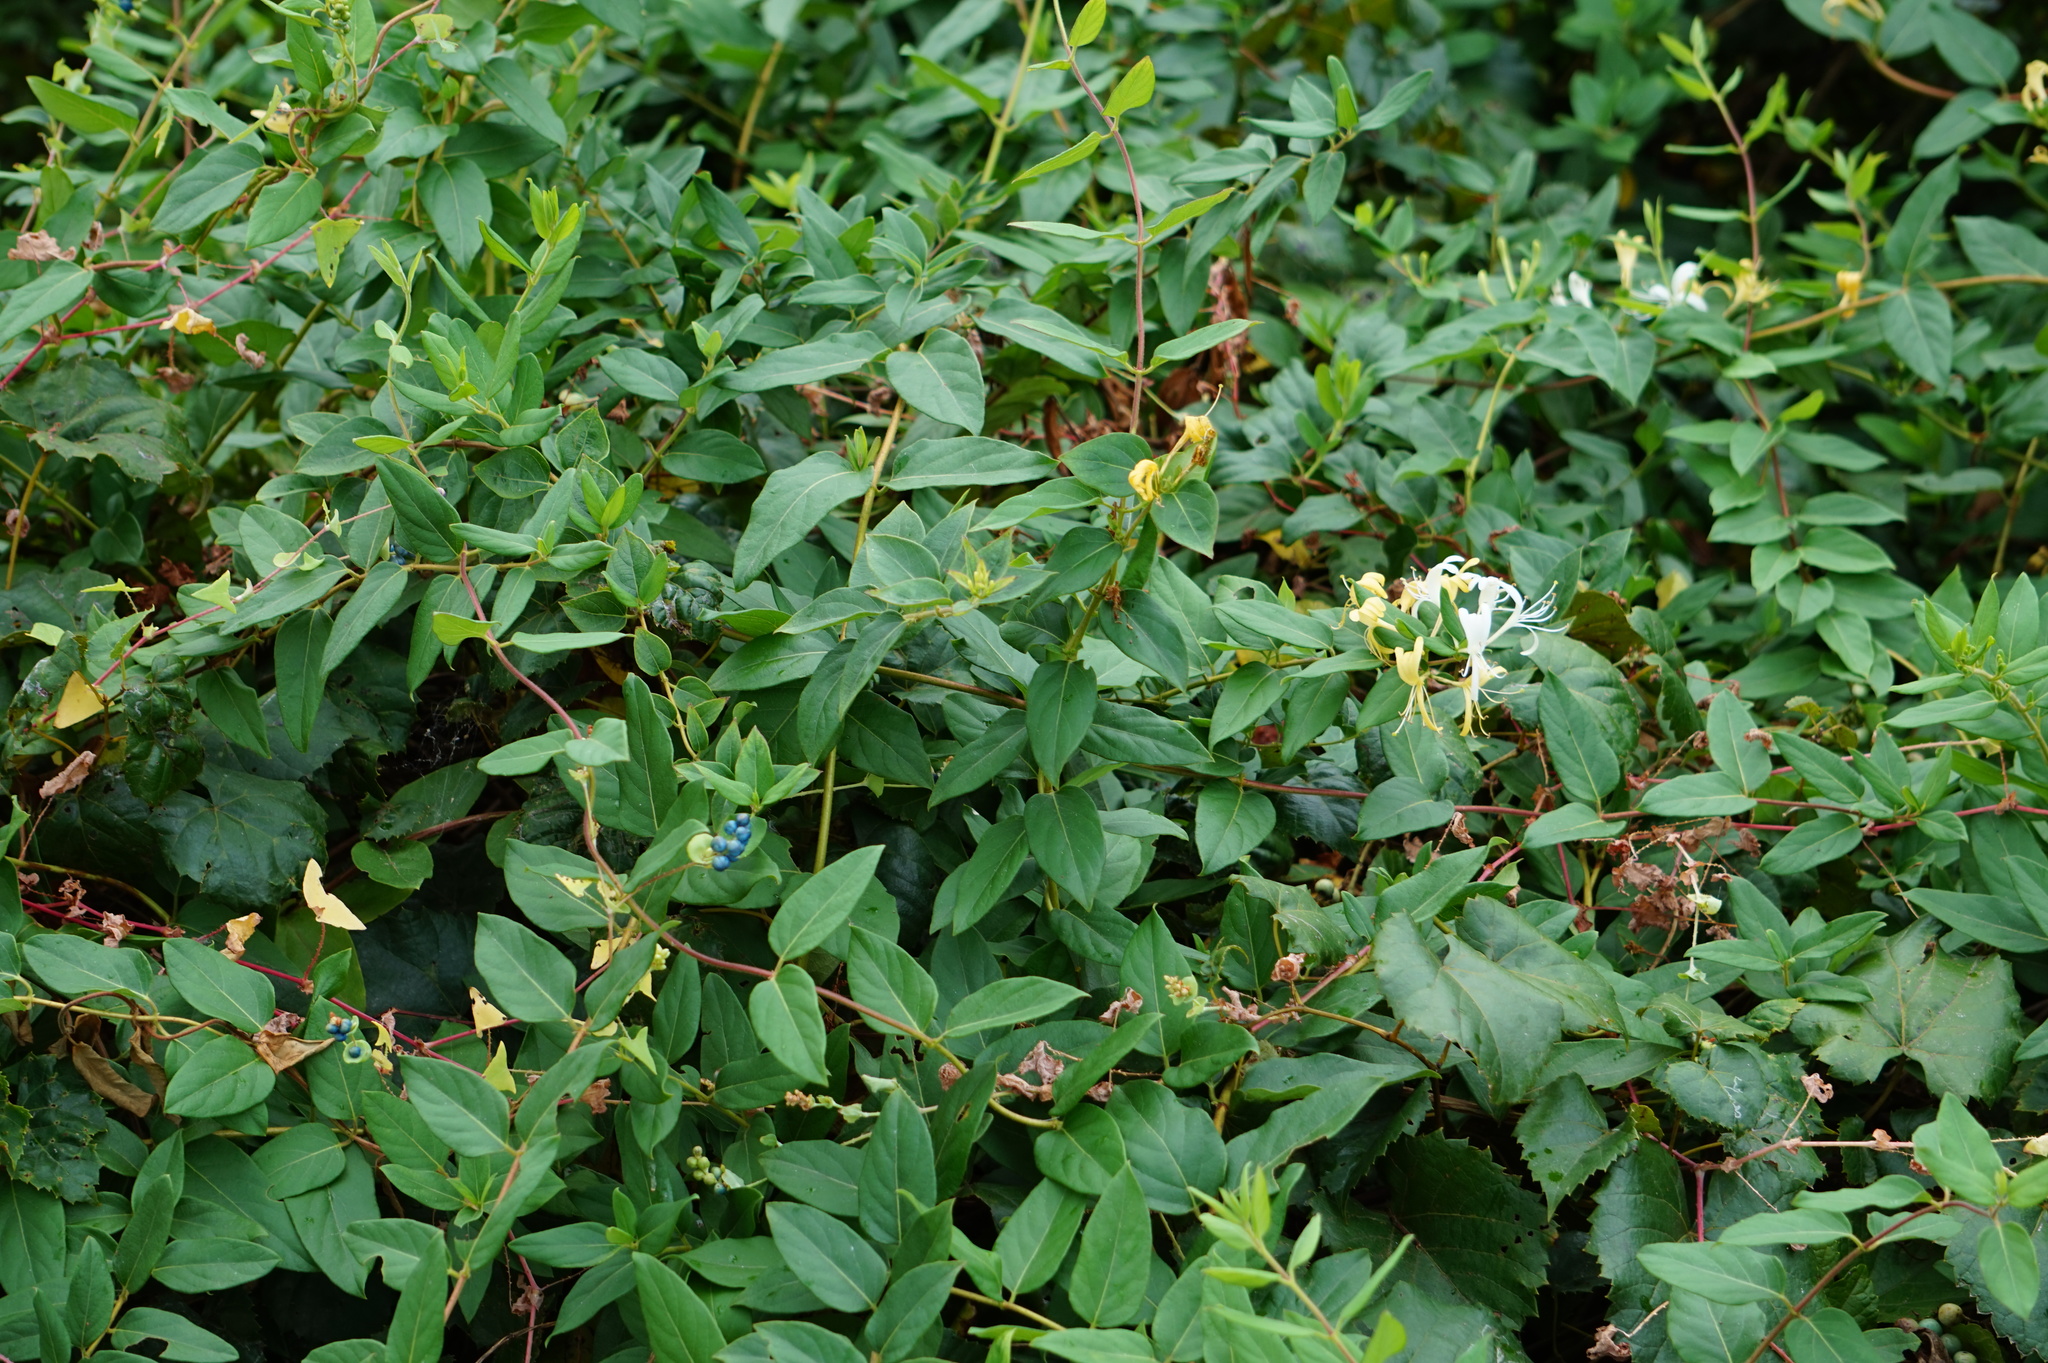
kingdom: Plantae
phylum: Tracheophyta
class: Magnoliopsida
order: Dipsacales
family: Caprifoliaceae
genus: Lonicera
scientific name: Lonicera japonica
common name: Japanese honeysuckle
